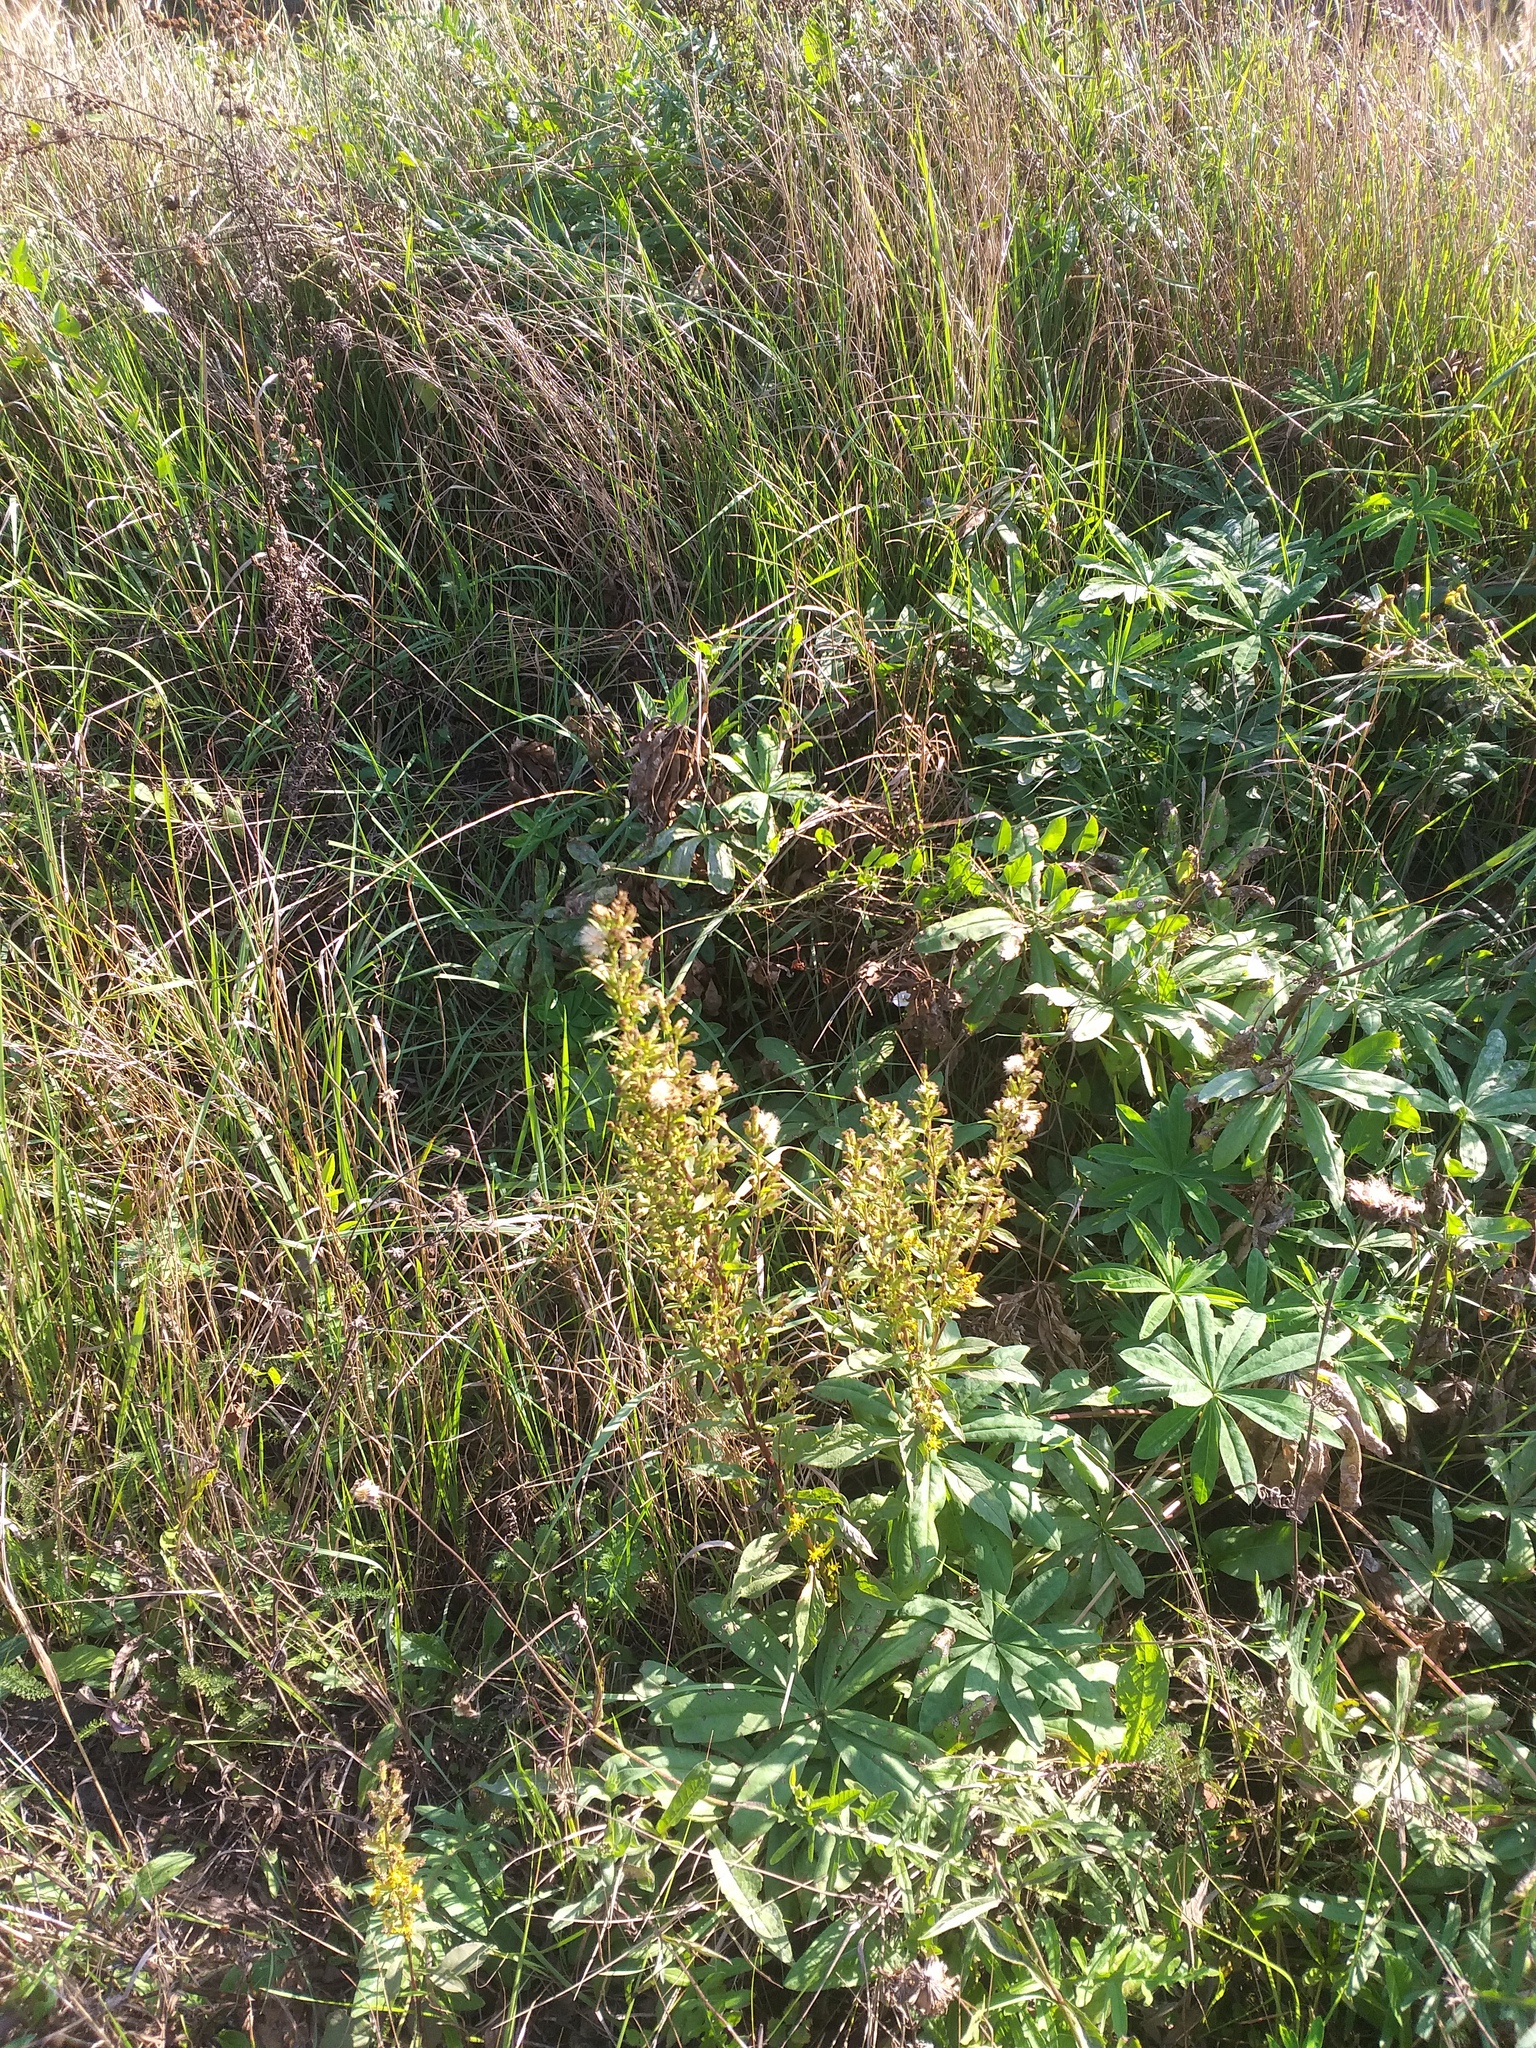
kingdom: Plantae
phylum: Tracheophyta
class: Magnoliopsida
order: Asterales
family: Asteraceae
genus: Solidago
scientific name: Solidago virgaurea
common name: Goldenrod
